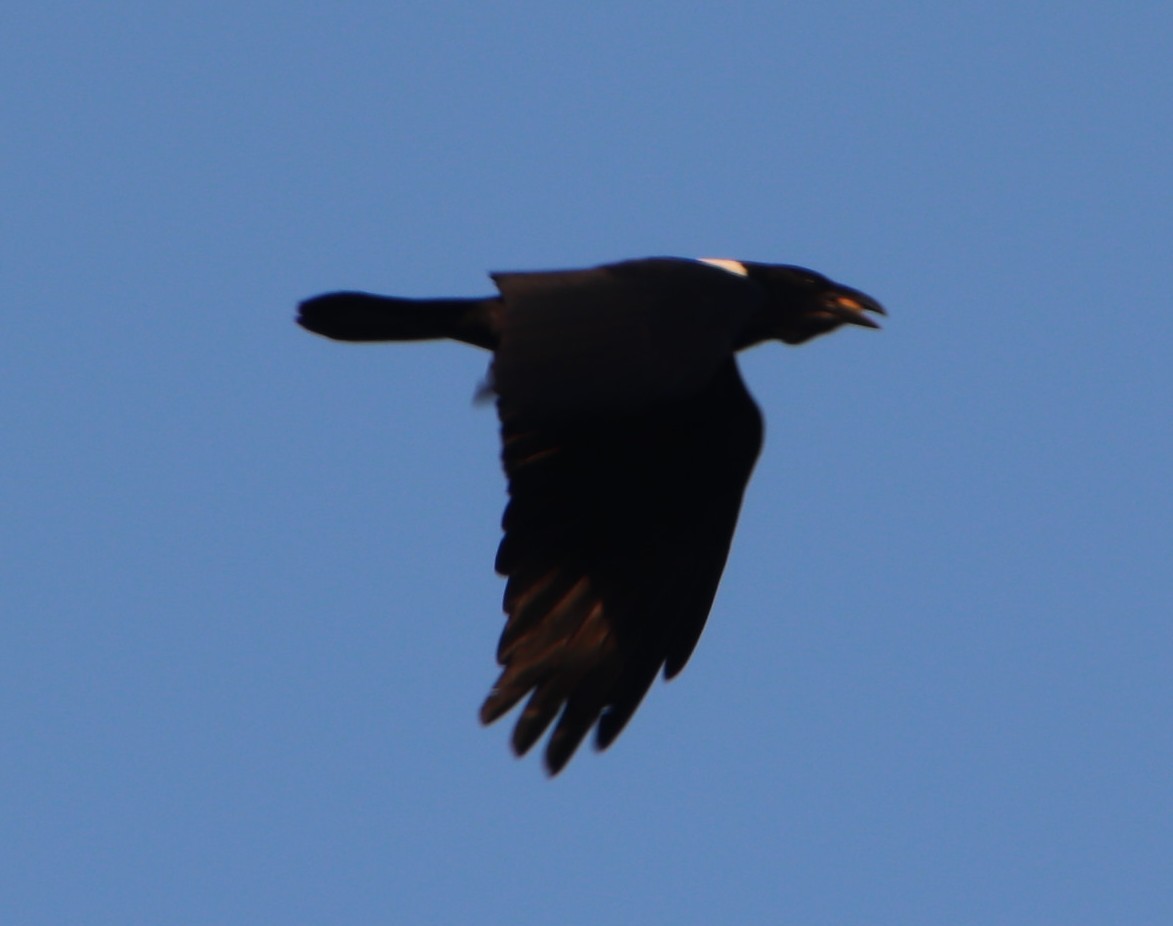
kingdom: Animalia
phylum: Chordata
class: Aves
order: Passeriformes
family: Corvidae
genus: Corvus
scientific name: Corvus albus
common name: Pied crow
